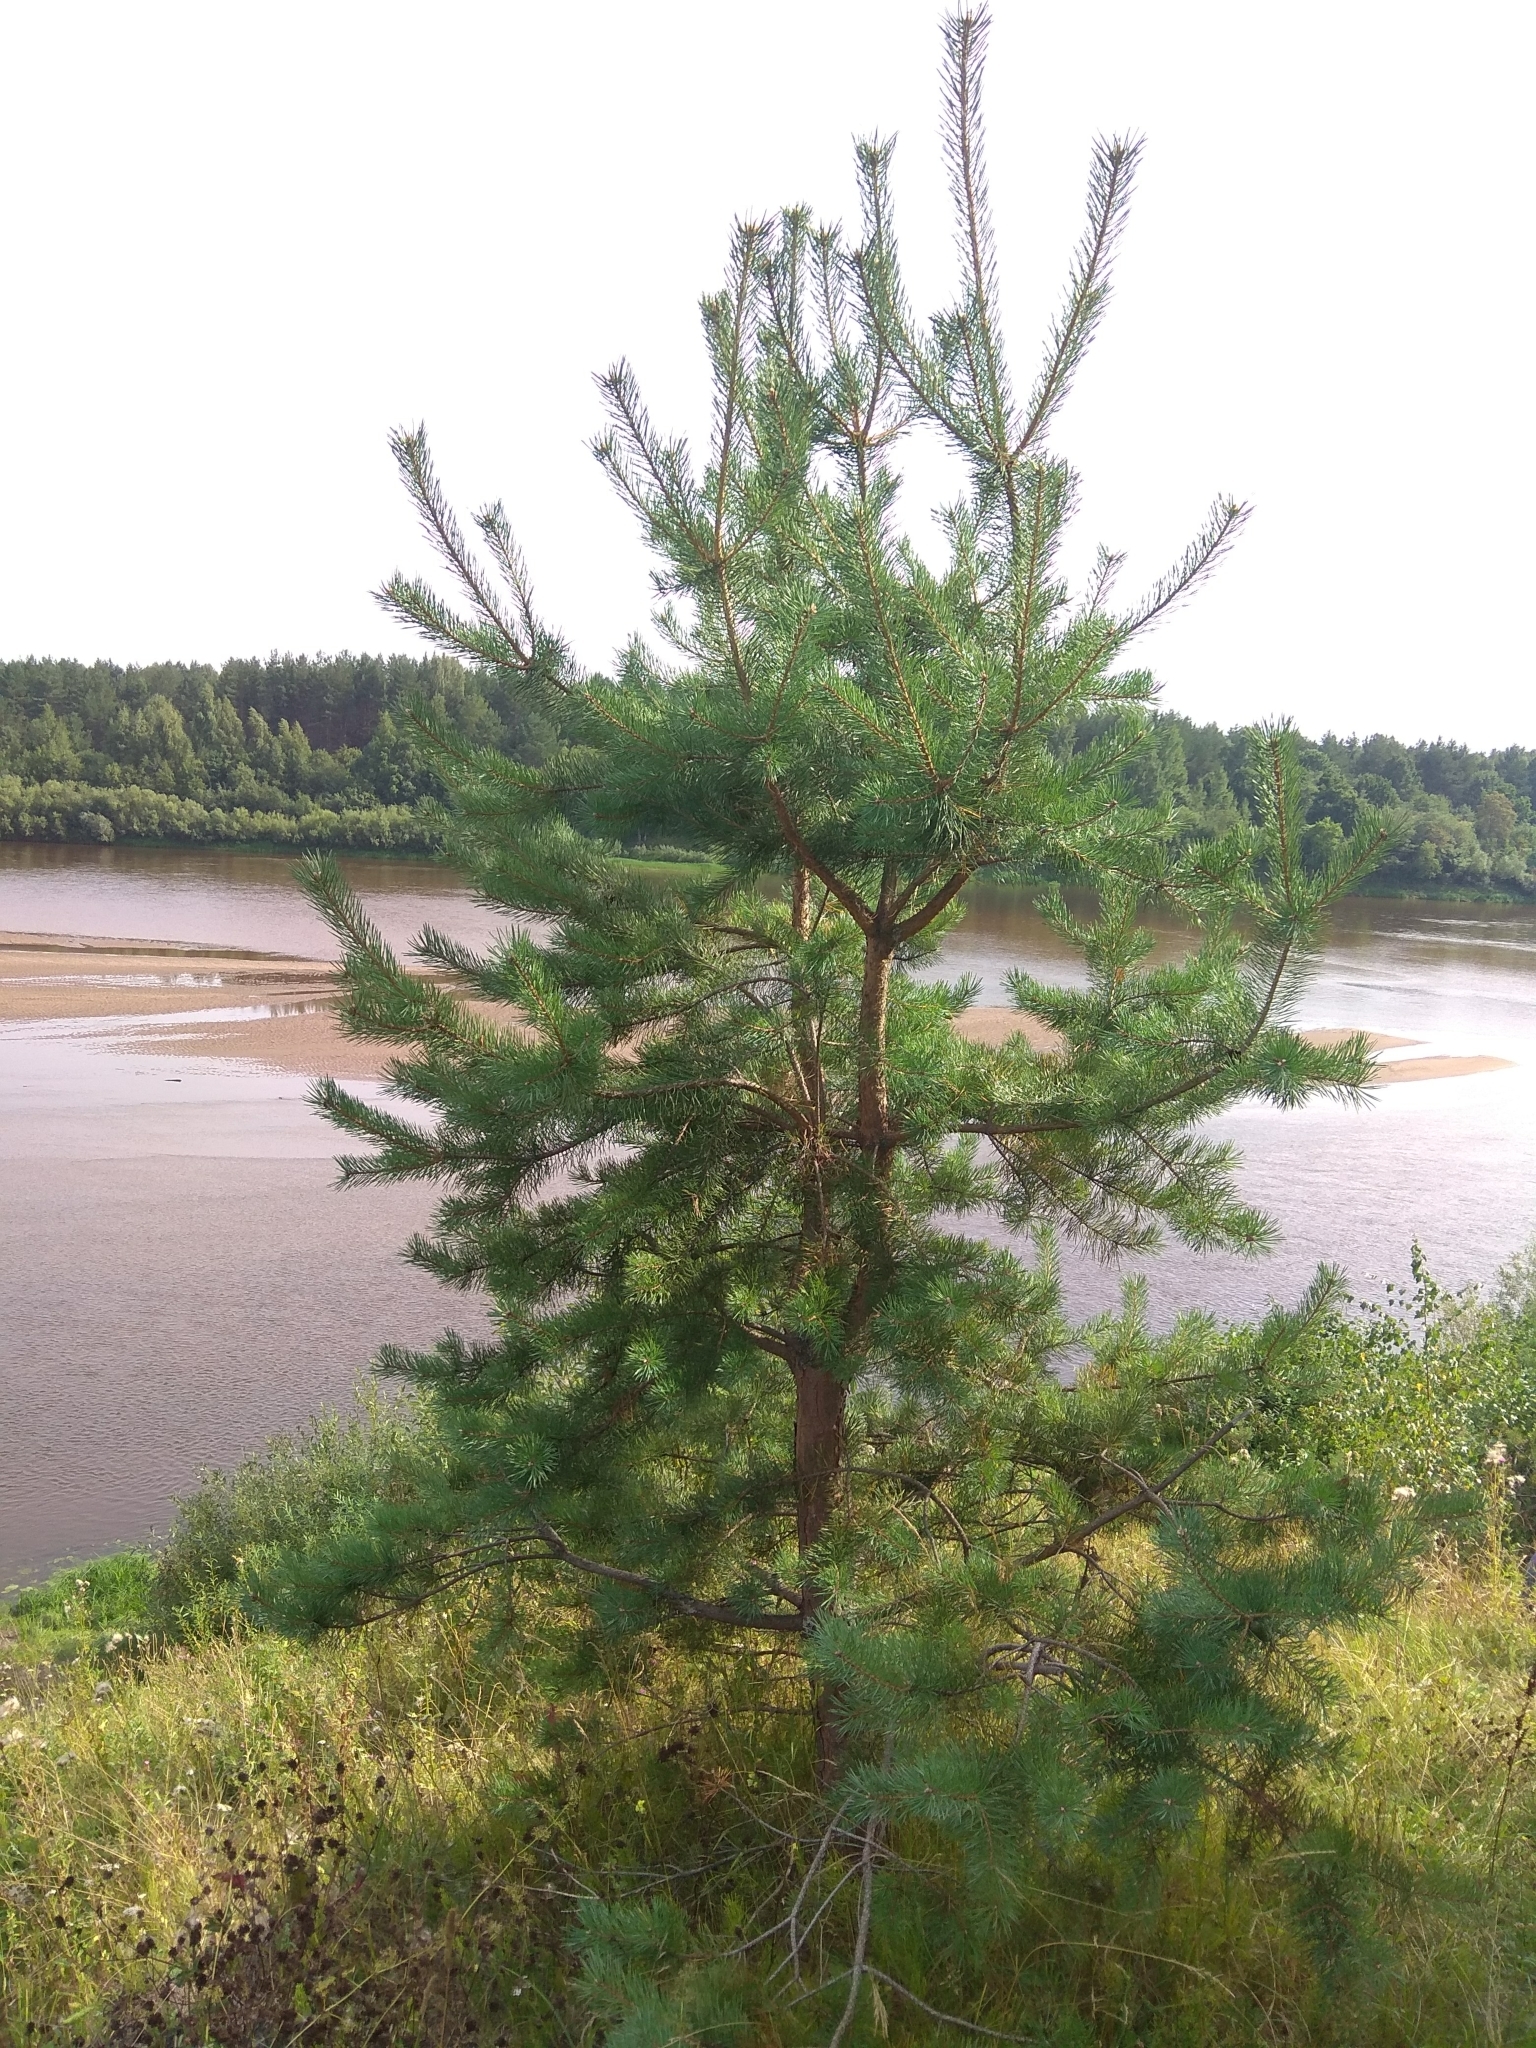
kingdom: Plantae
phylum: Tracheophyta
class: Pinopsida
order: Pinales
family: Pinaceae
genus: Pinus
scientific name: Pinus sylvestris
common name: Scots pine
